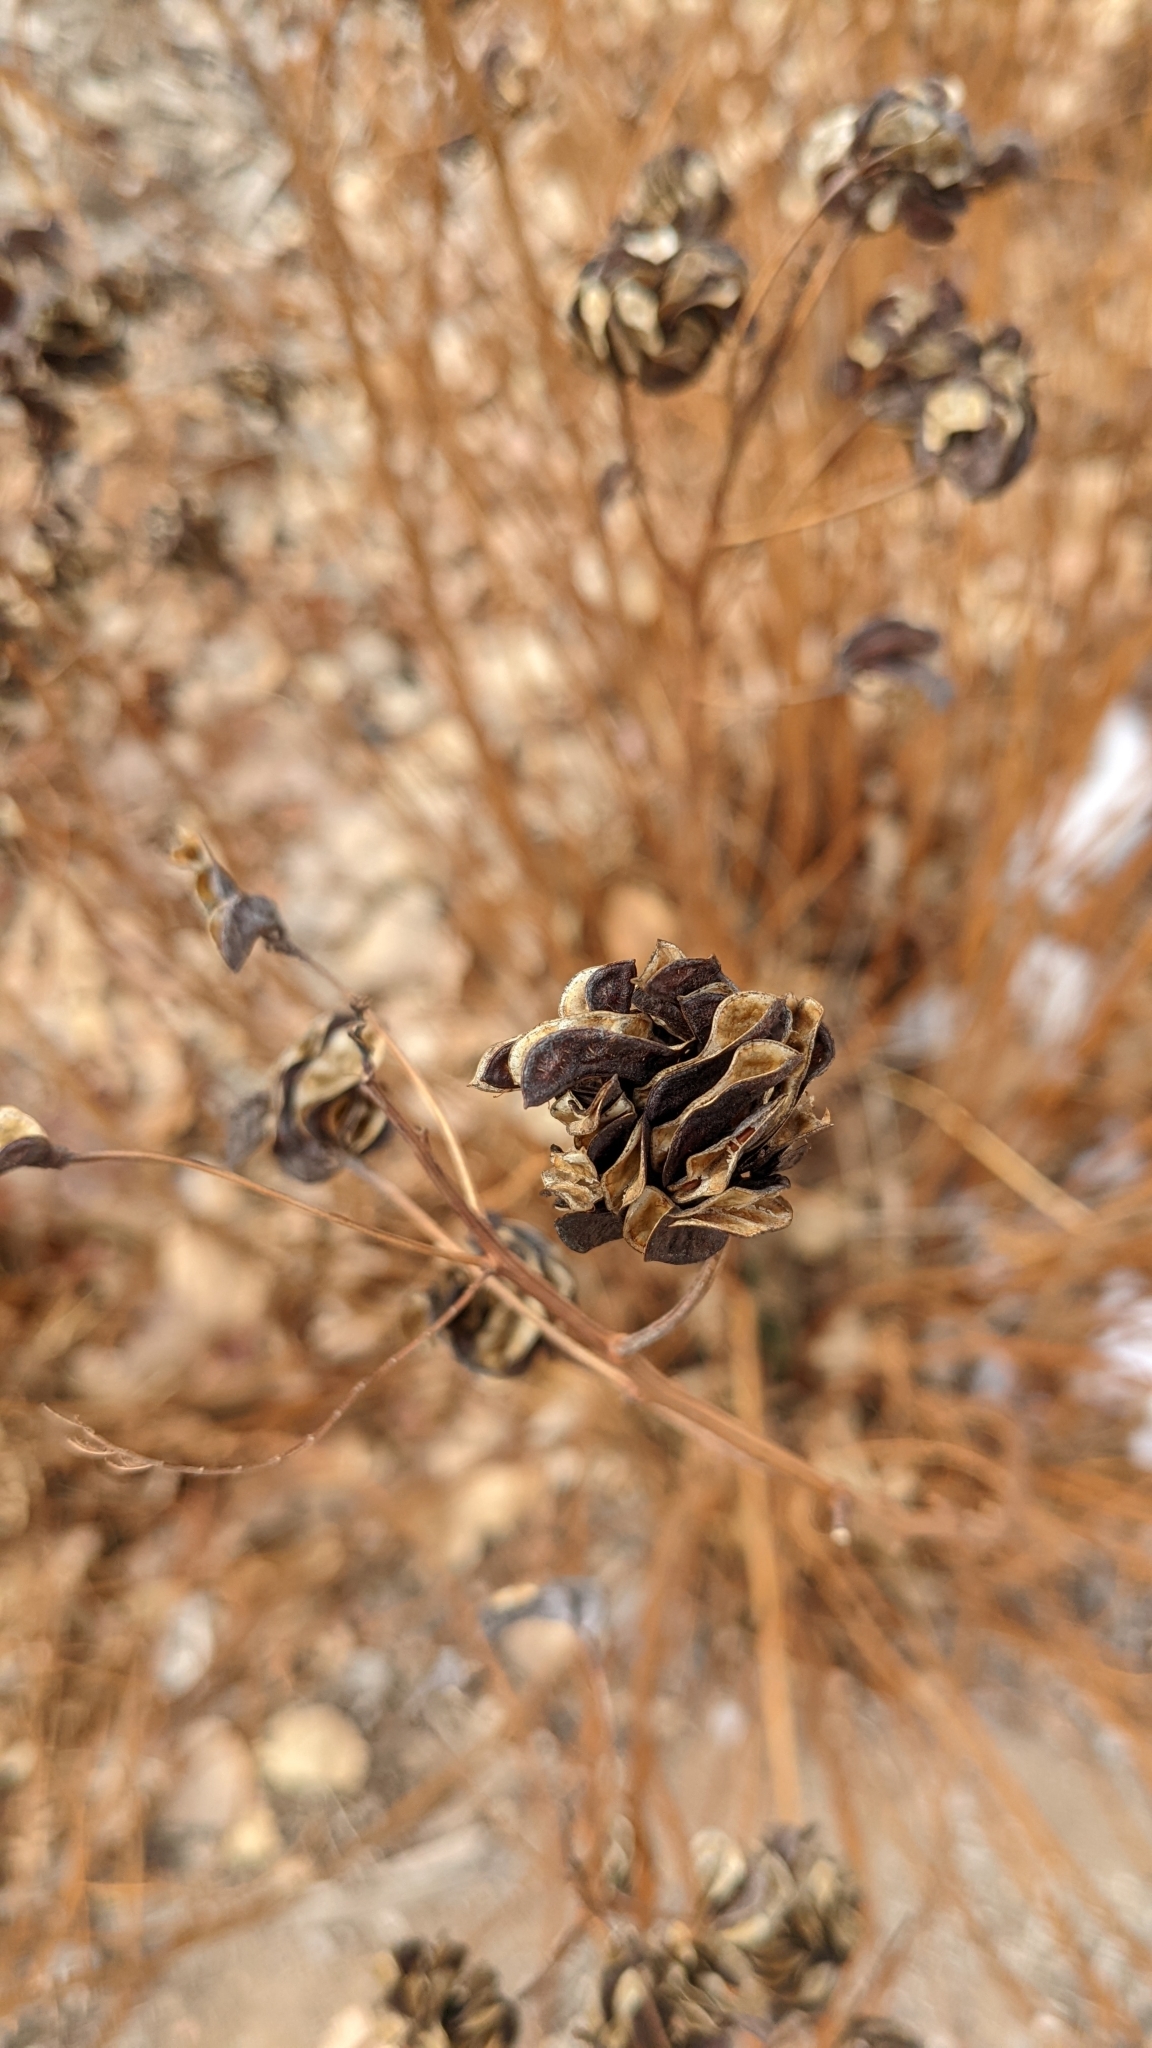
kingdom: Plantae
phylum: Tracheophyta
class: Magnoliopsida
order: Fabales
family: Fabaceae
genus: Desmanthus
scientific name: Desmanthus illinoensis
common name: Illinois bundle-flower
